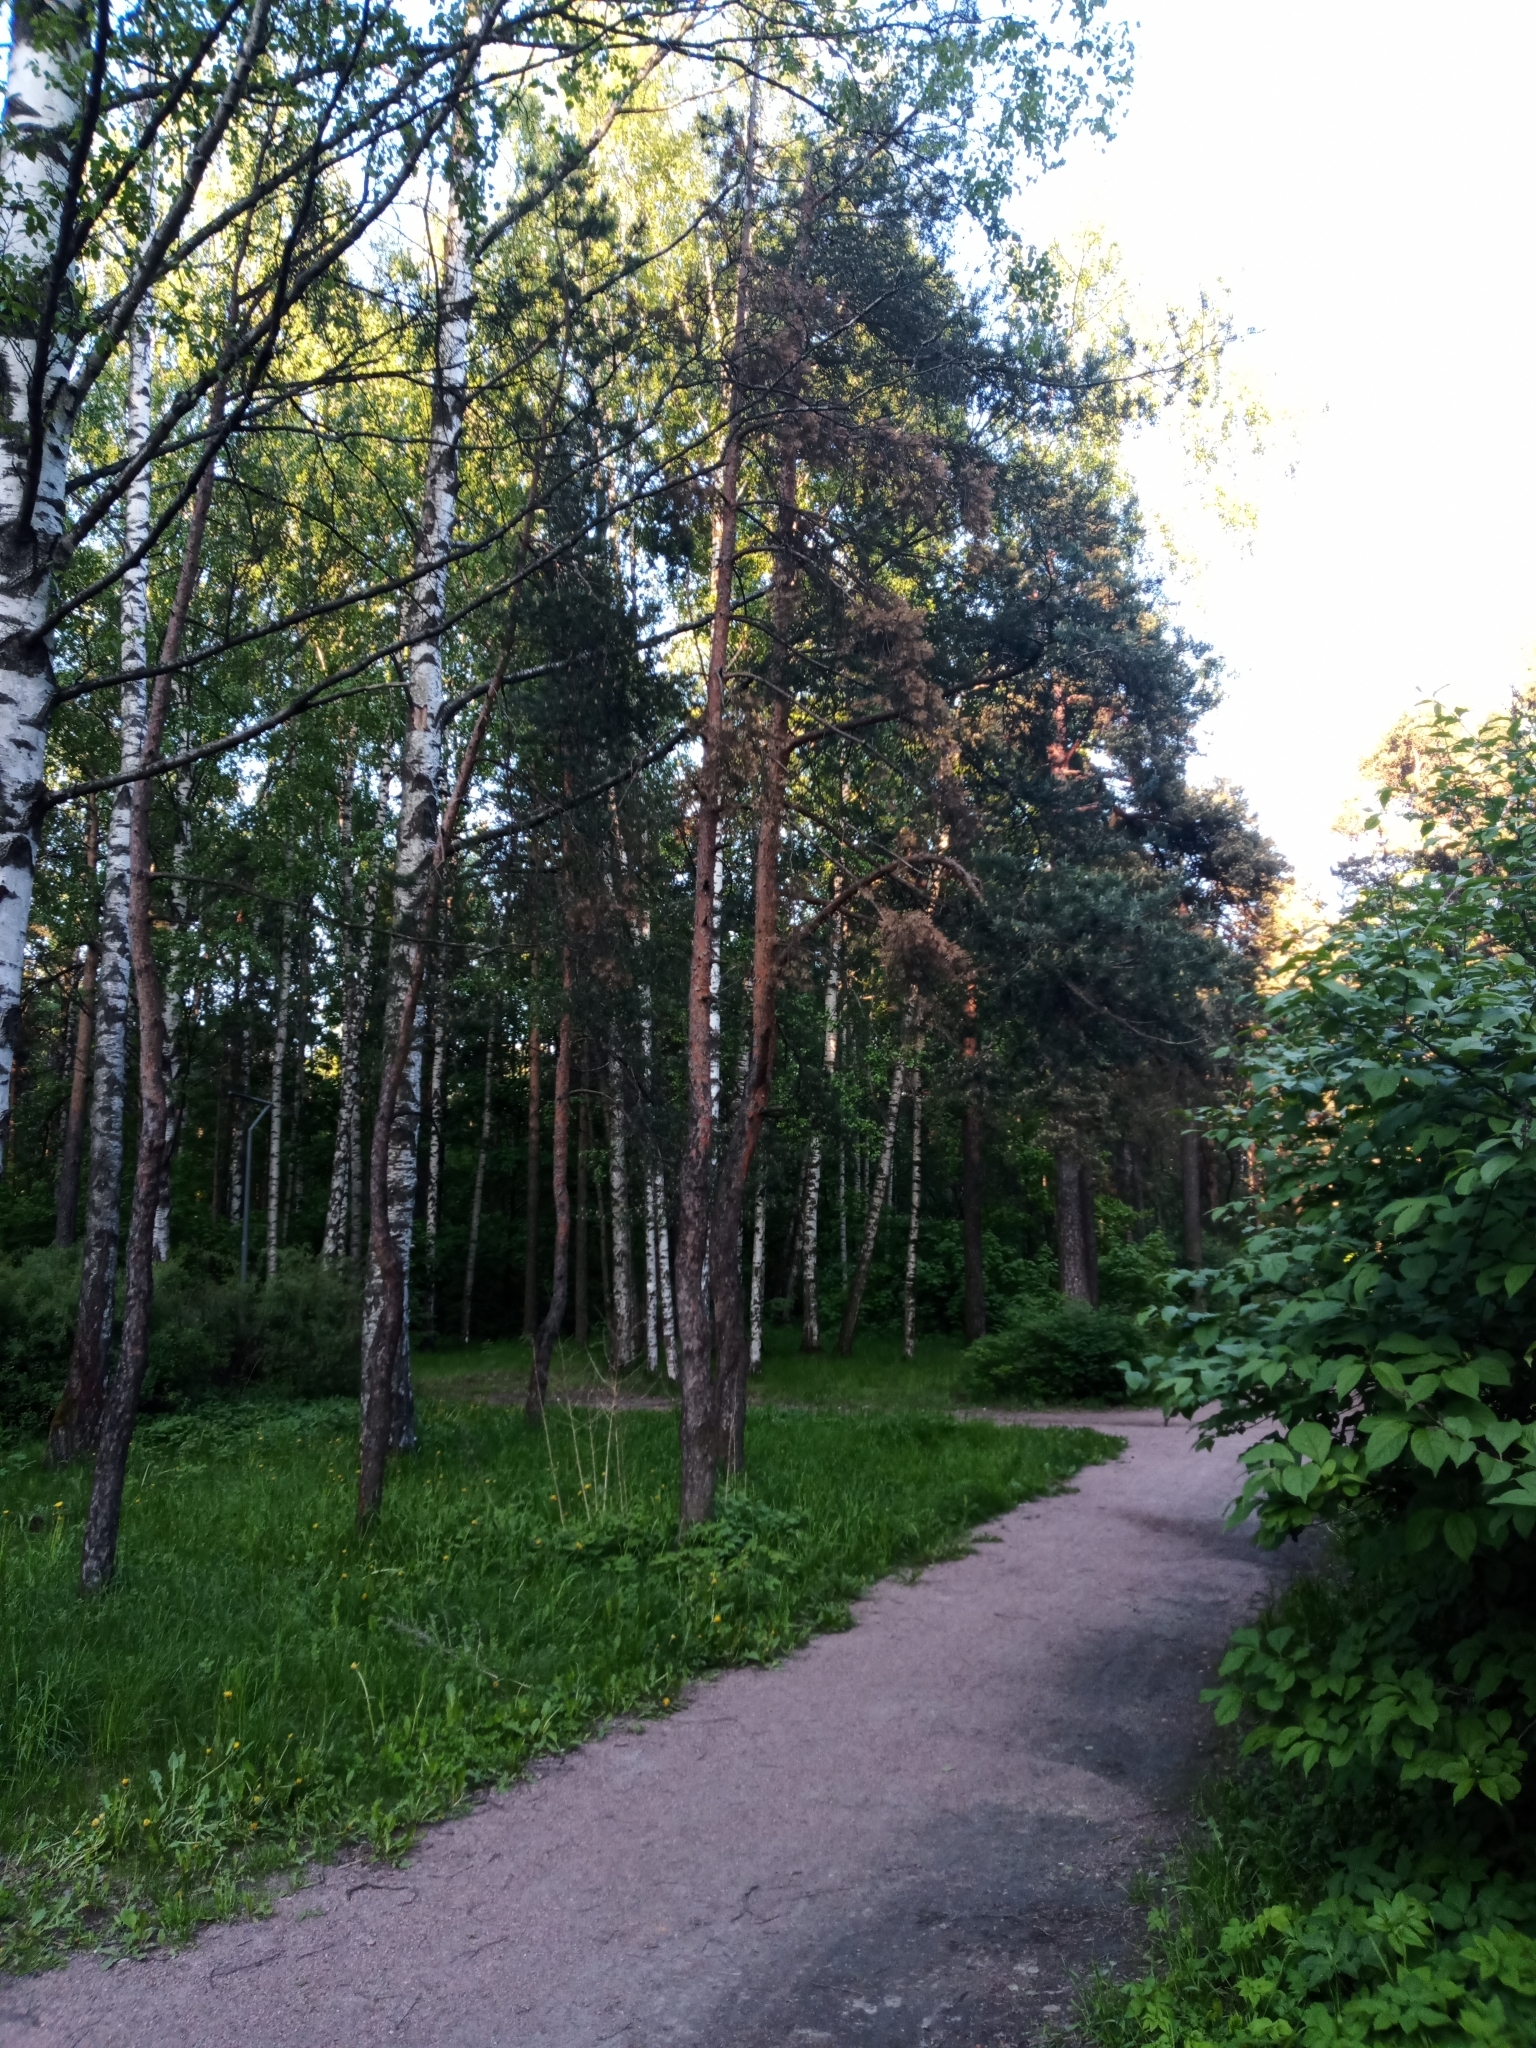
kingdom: Plantae
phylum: Tracheophyta
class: Pinopsida
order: Pinales
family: Pinaceae
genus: Pinus
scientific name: Pinus sylvestris
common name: Scots pine
